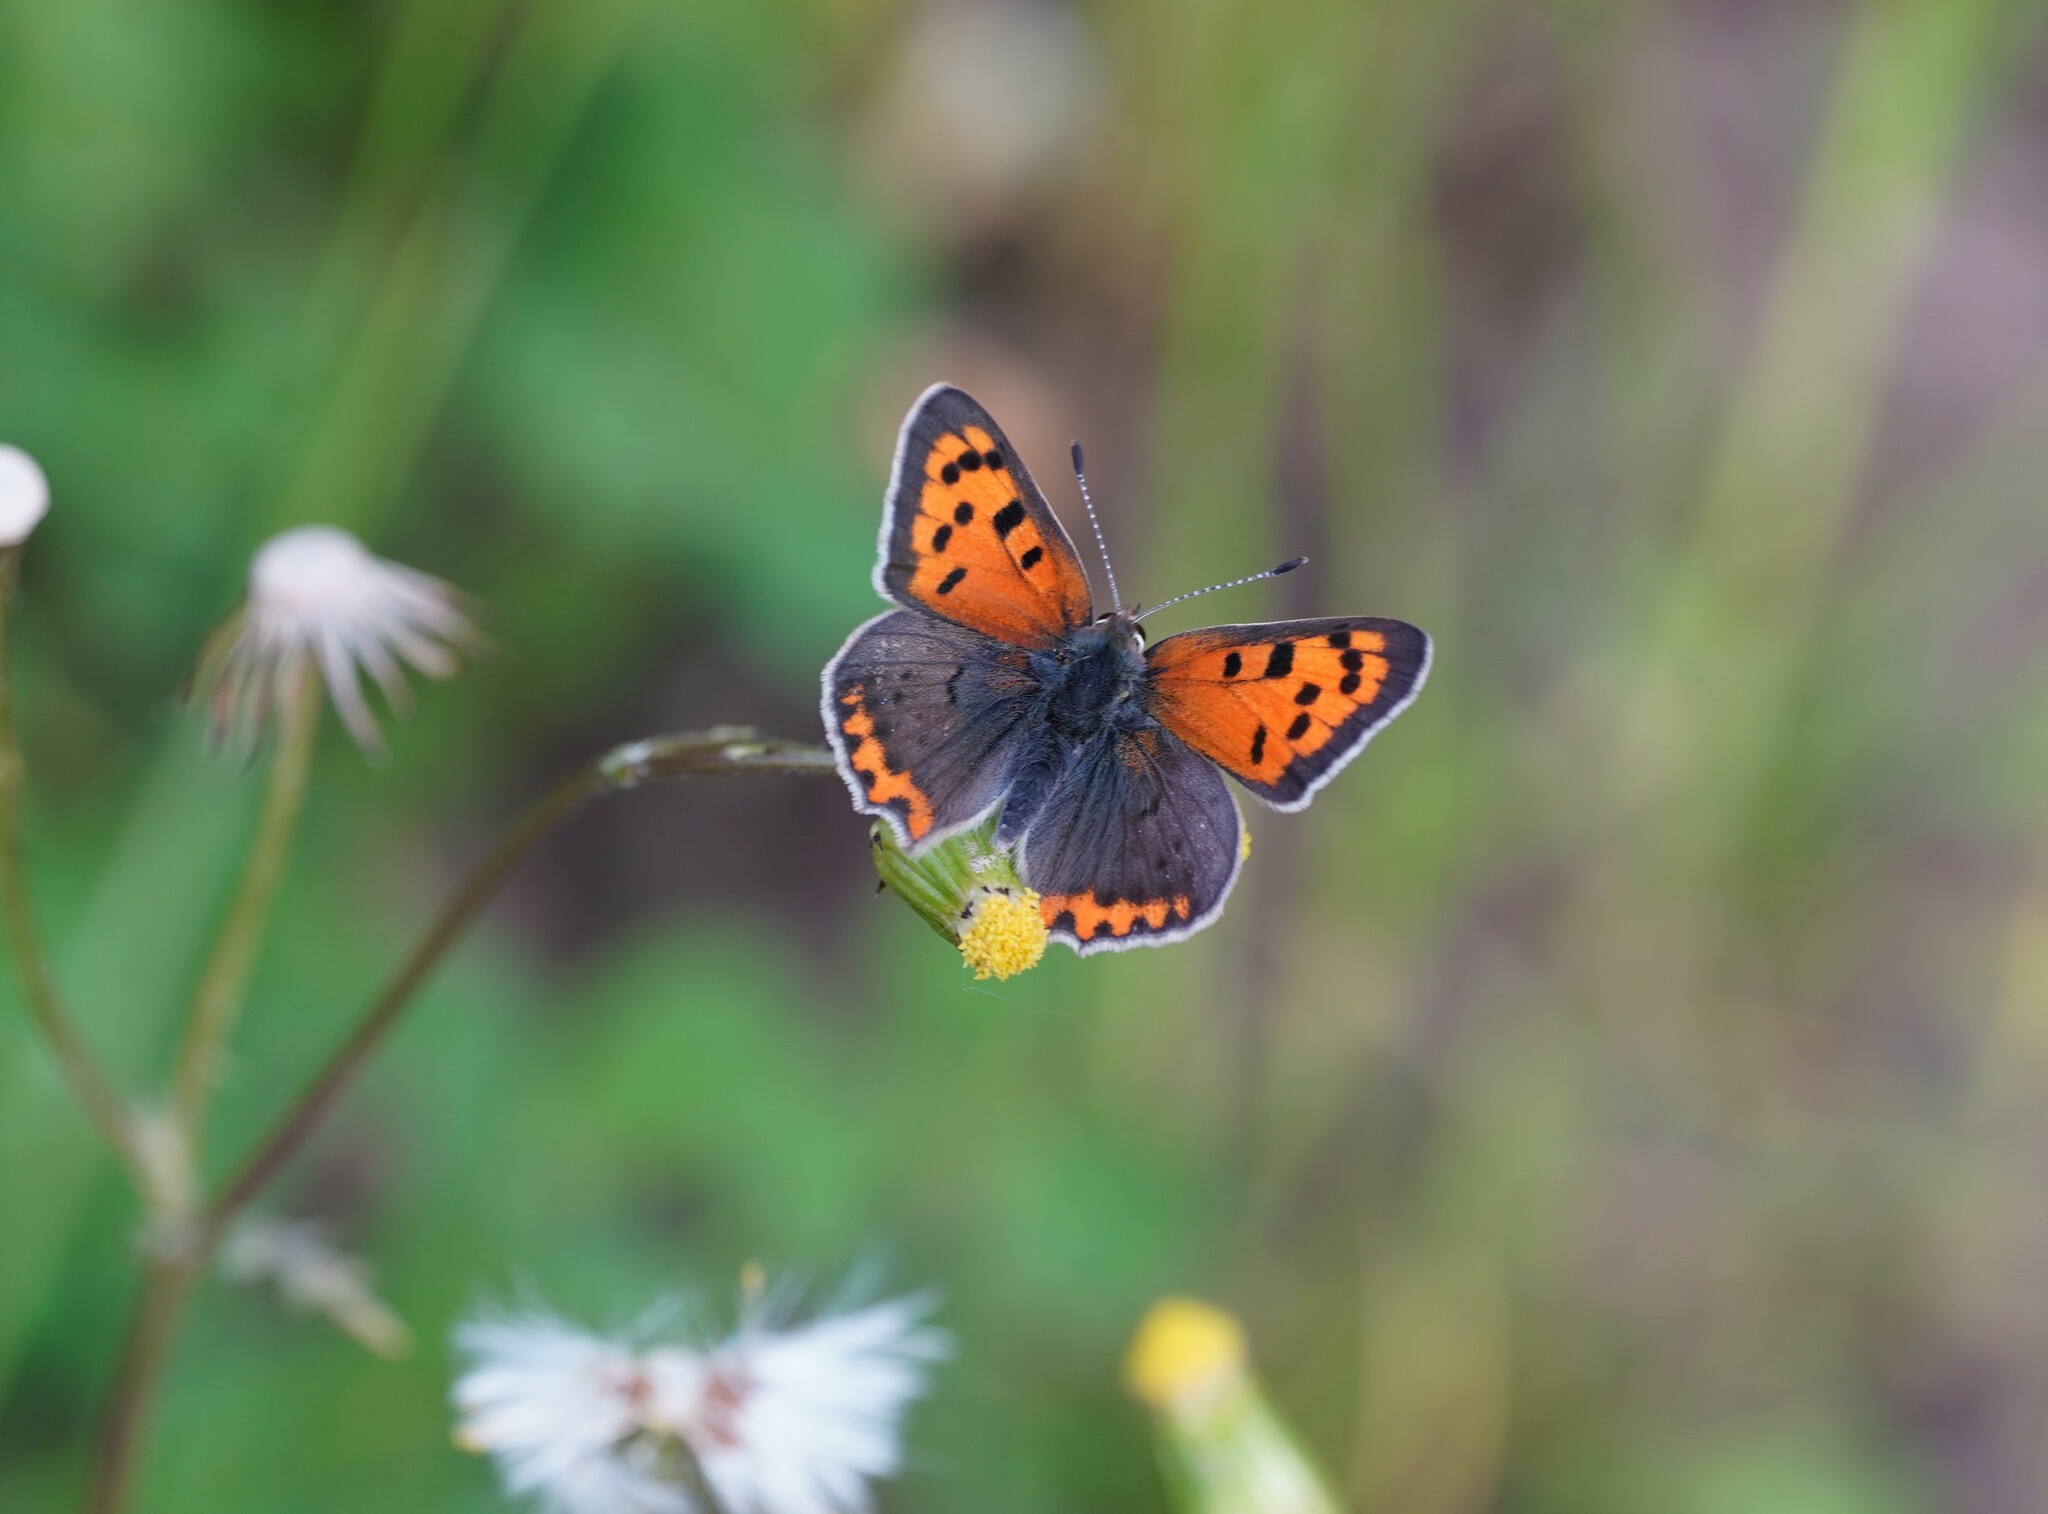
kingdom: Animalia
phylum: Arthropoda
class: Insecta
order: Lepidoptera
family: Lycaenidae
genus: Lycaena
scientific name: Lycaena phlaeas
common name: Small copper
